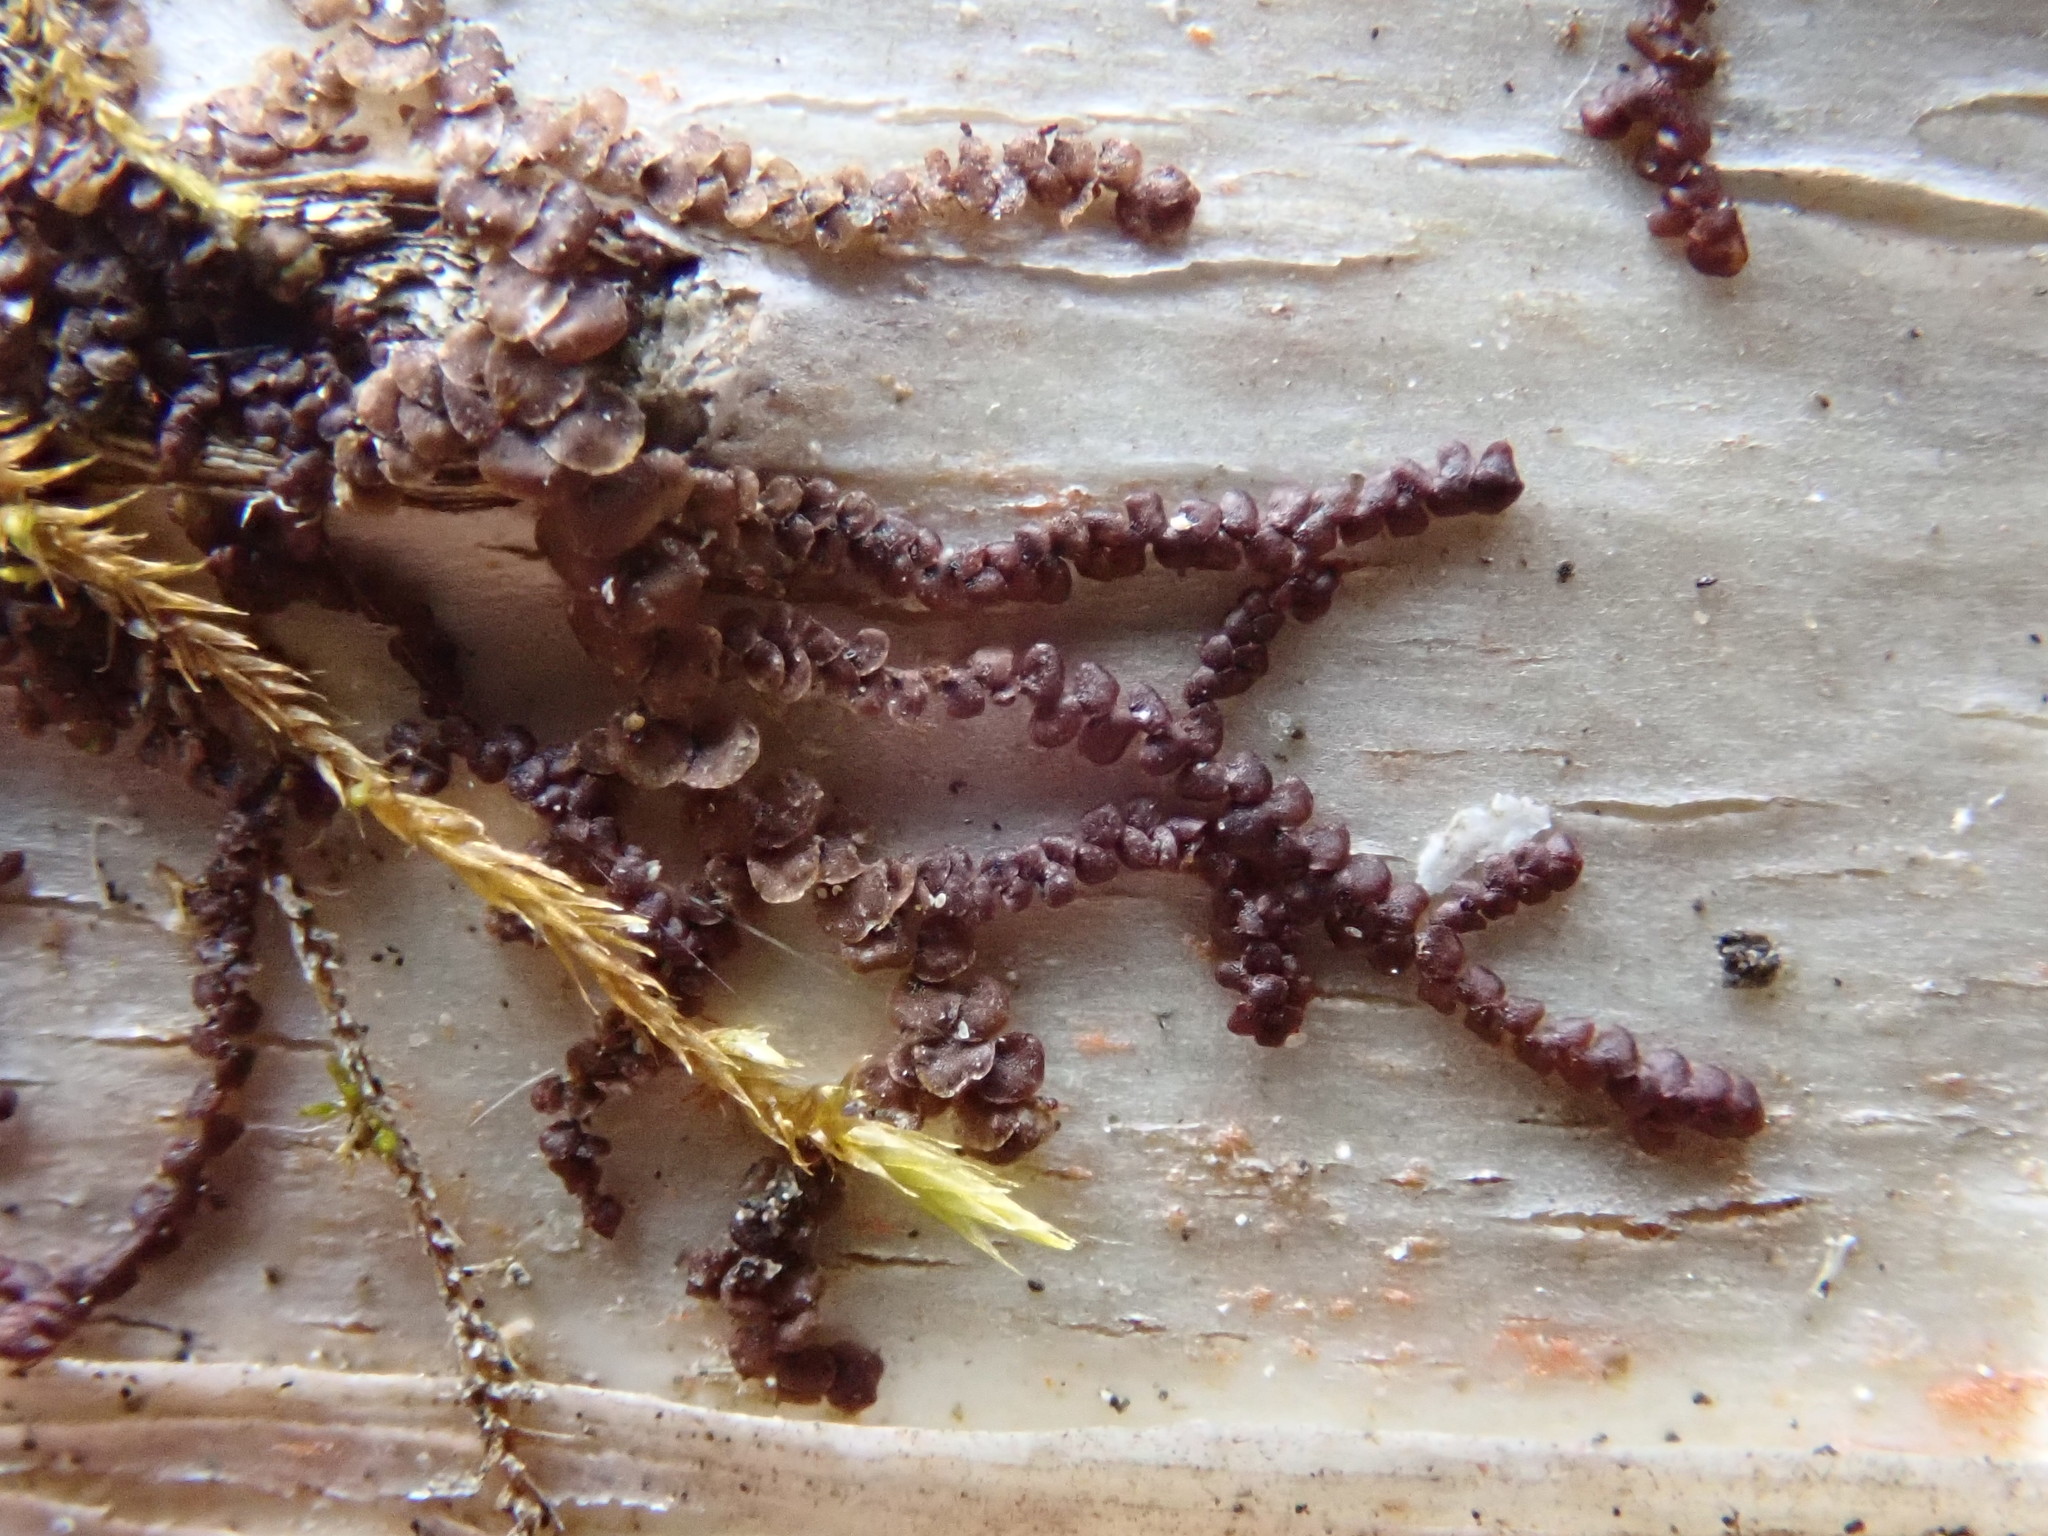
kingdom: Plantae
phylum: Marchantiophyta
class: Jungermanniopsida
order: Porellales
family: Frullaniaceae
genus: Frullania
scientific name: Frullania
